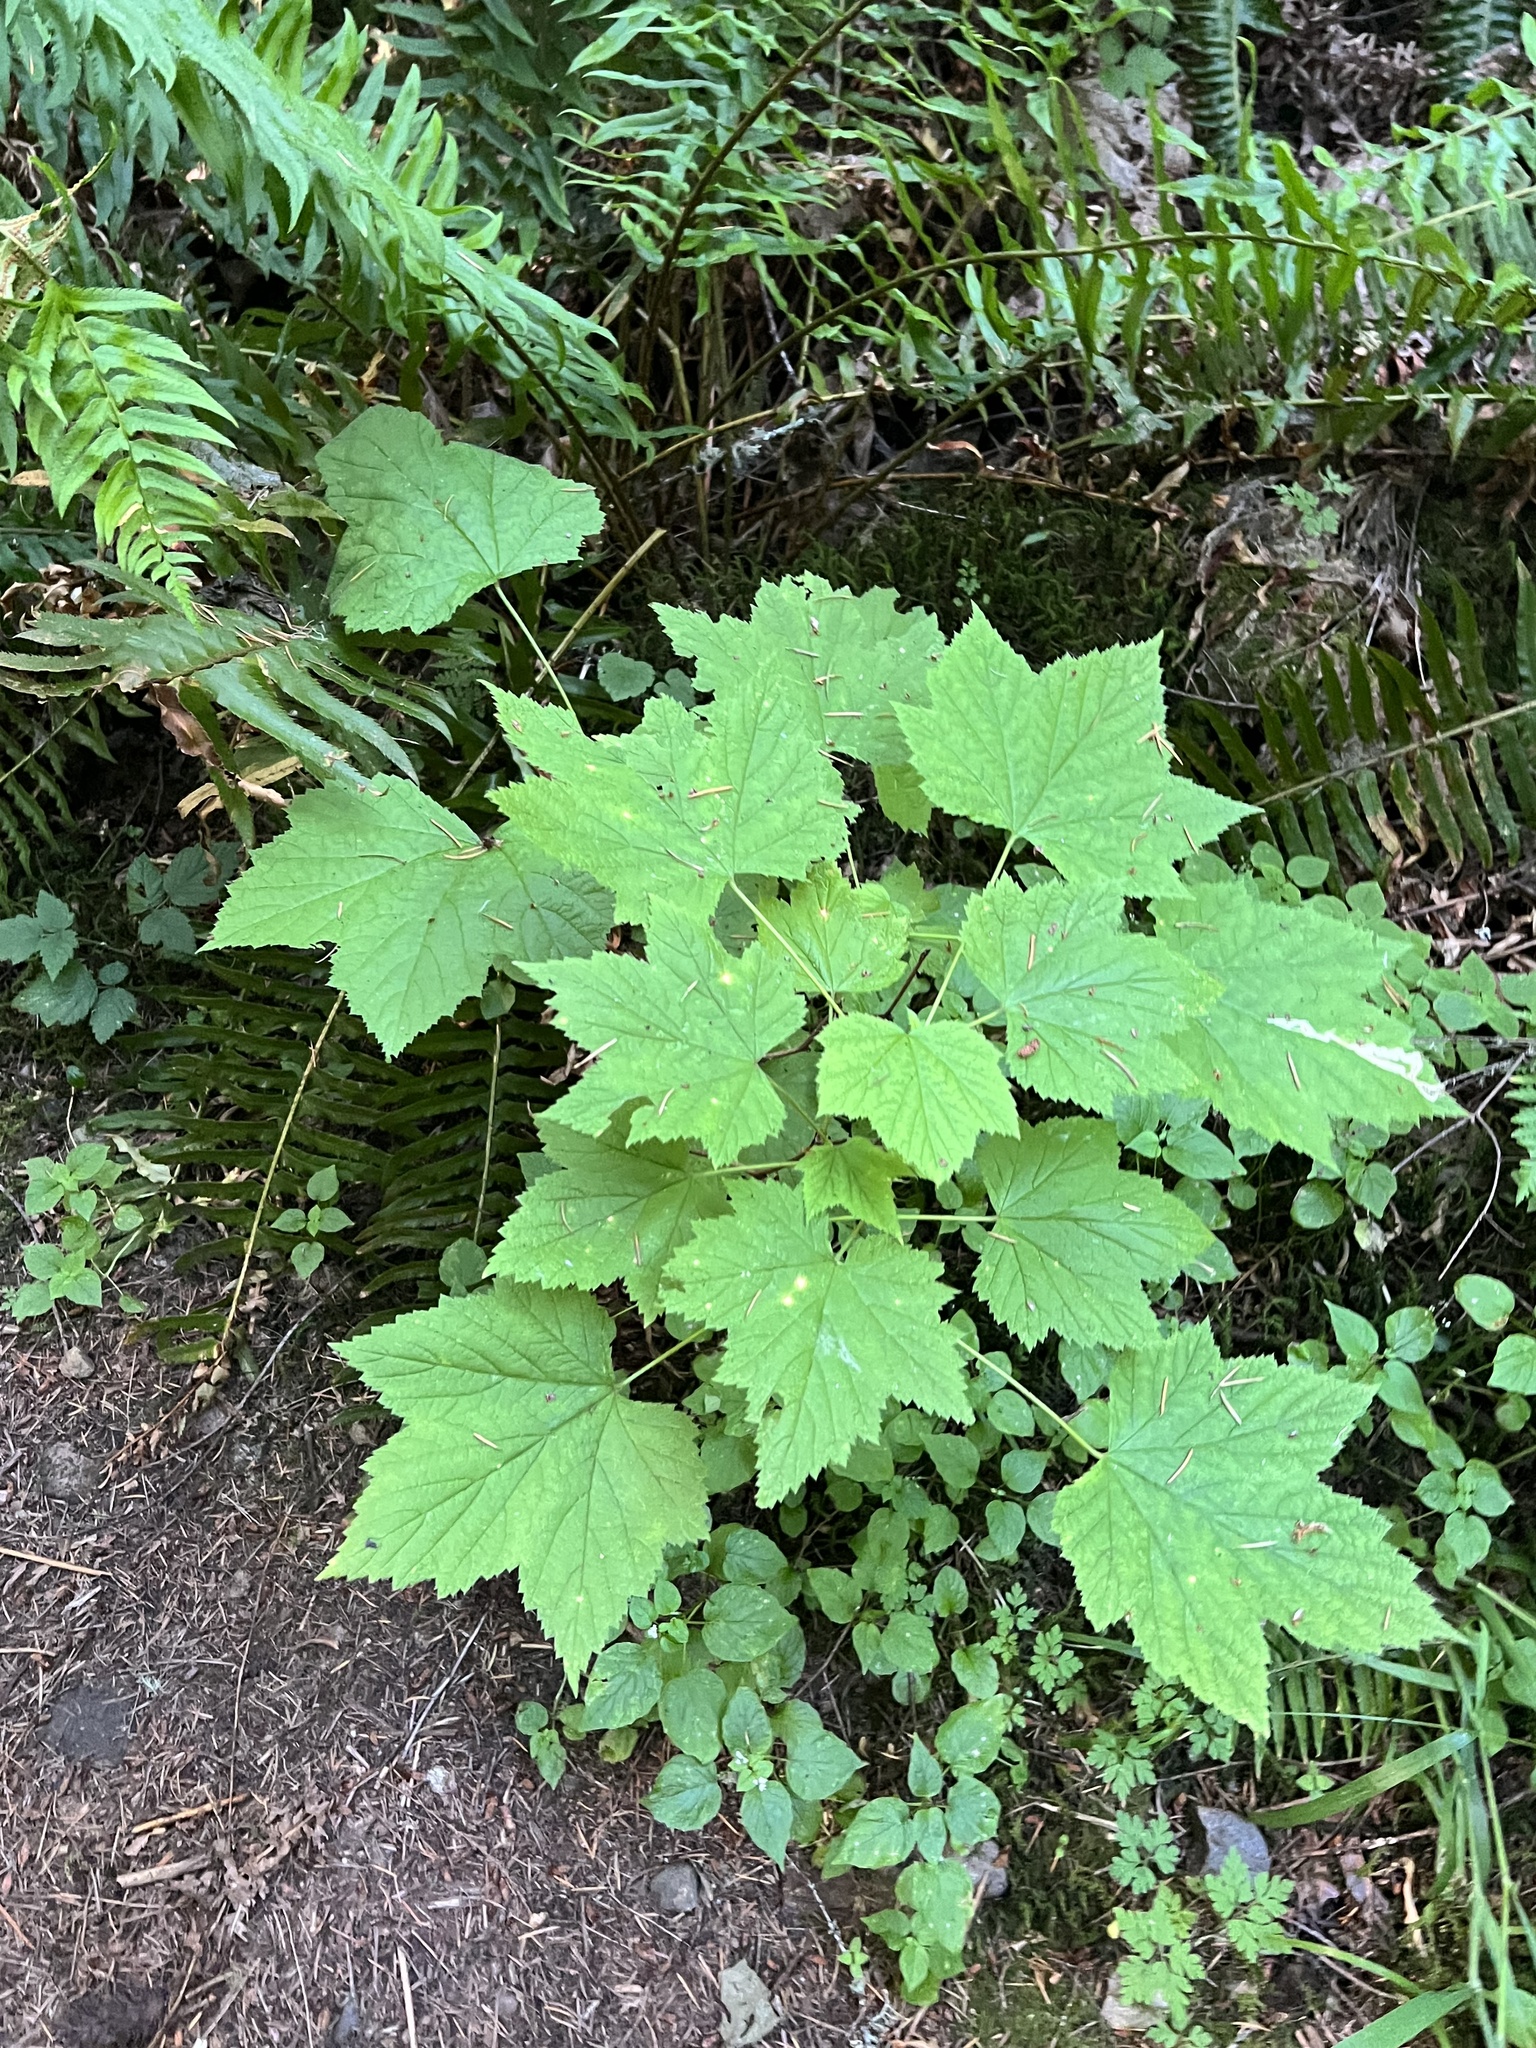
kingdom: Animalia
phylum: Arthropoda
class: Insecta
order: Diptera
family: Agromyzidae
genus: Agromyza
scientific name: Agromyza vockerothi
